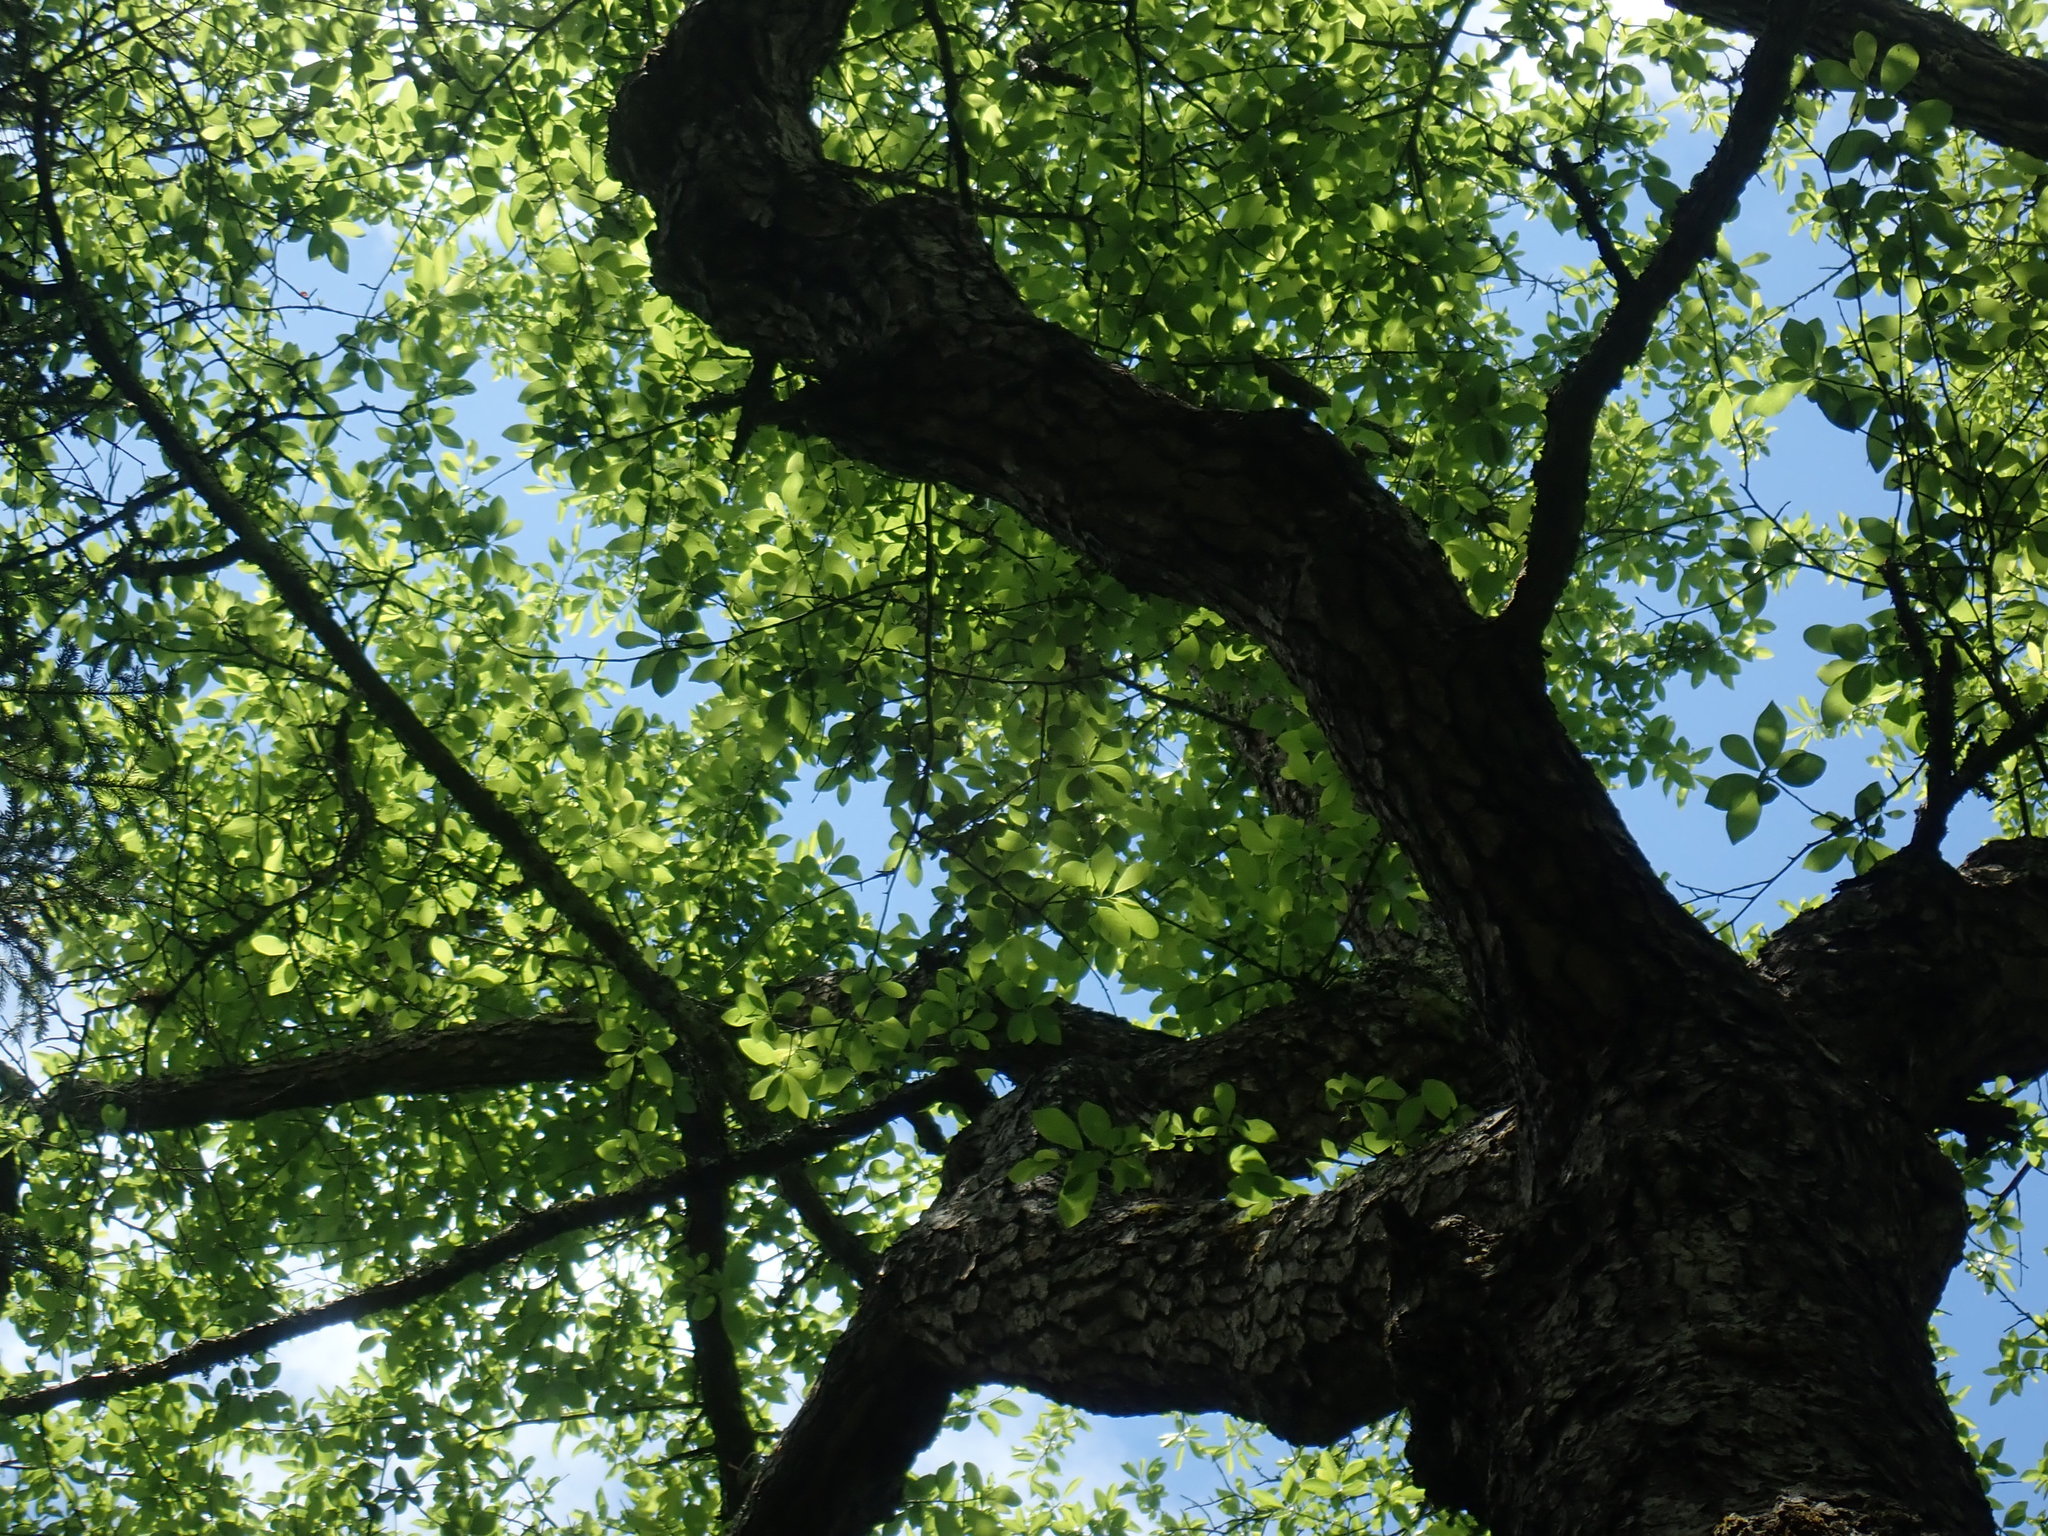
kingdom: Plantae
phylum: Tracheophyta
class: Magnoliopsida
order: Cornales
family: Nyssaceae
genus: Nyssa
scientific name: Nyssa sylvatica
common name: Black tupelo
